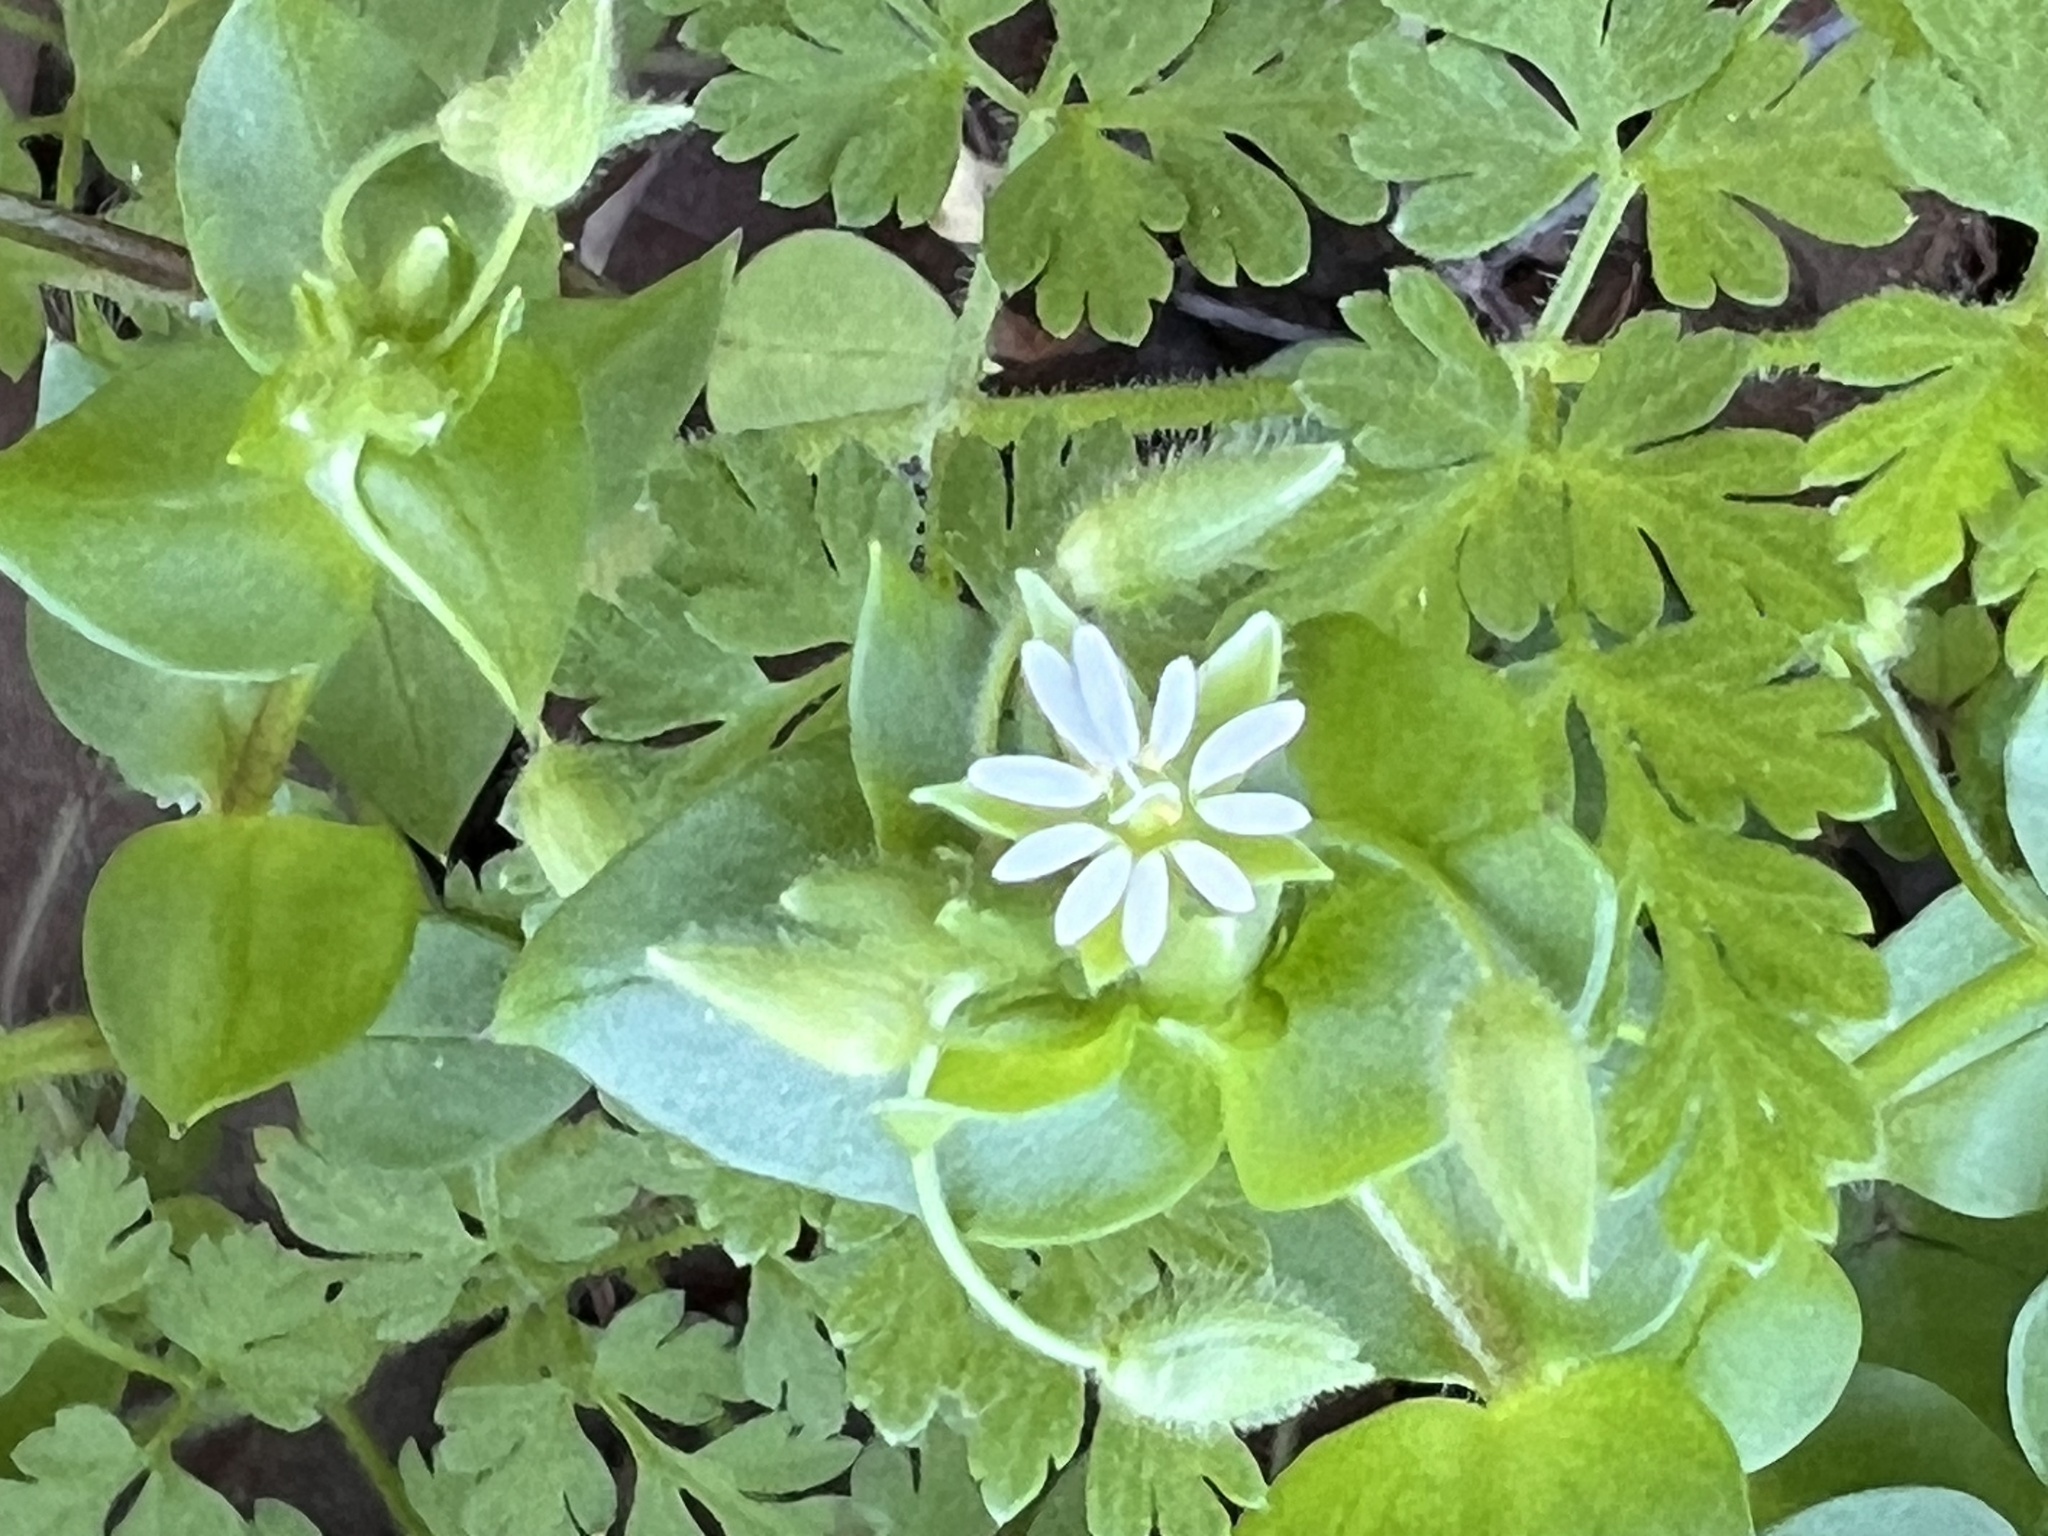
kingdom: Plantae
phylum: Tracheophyta
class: Magnoliopsida
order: Caryophyllales
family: Caryophyllaceae
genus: Stellaria
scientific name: Stellaria media
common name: Common chickweed
